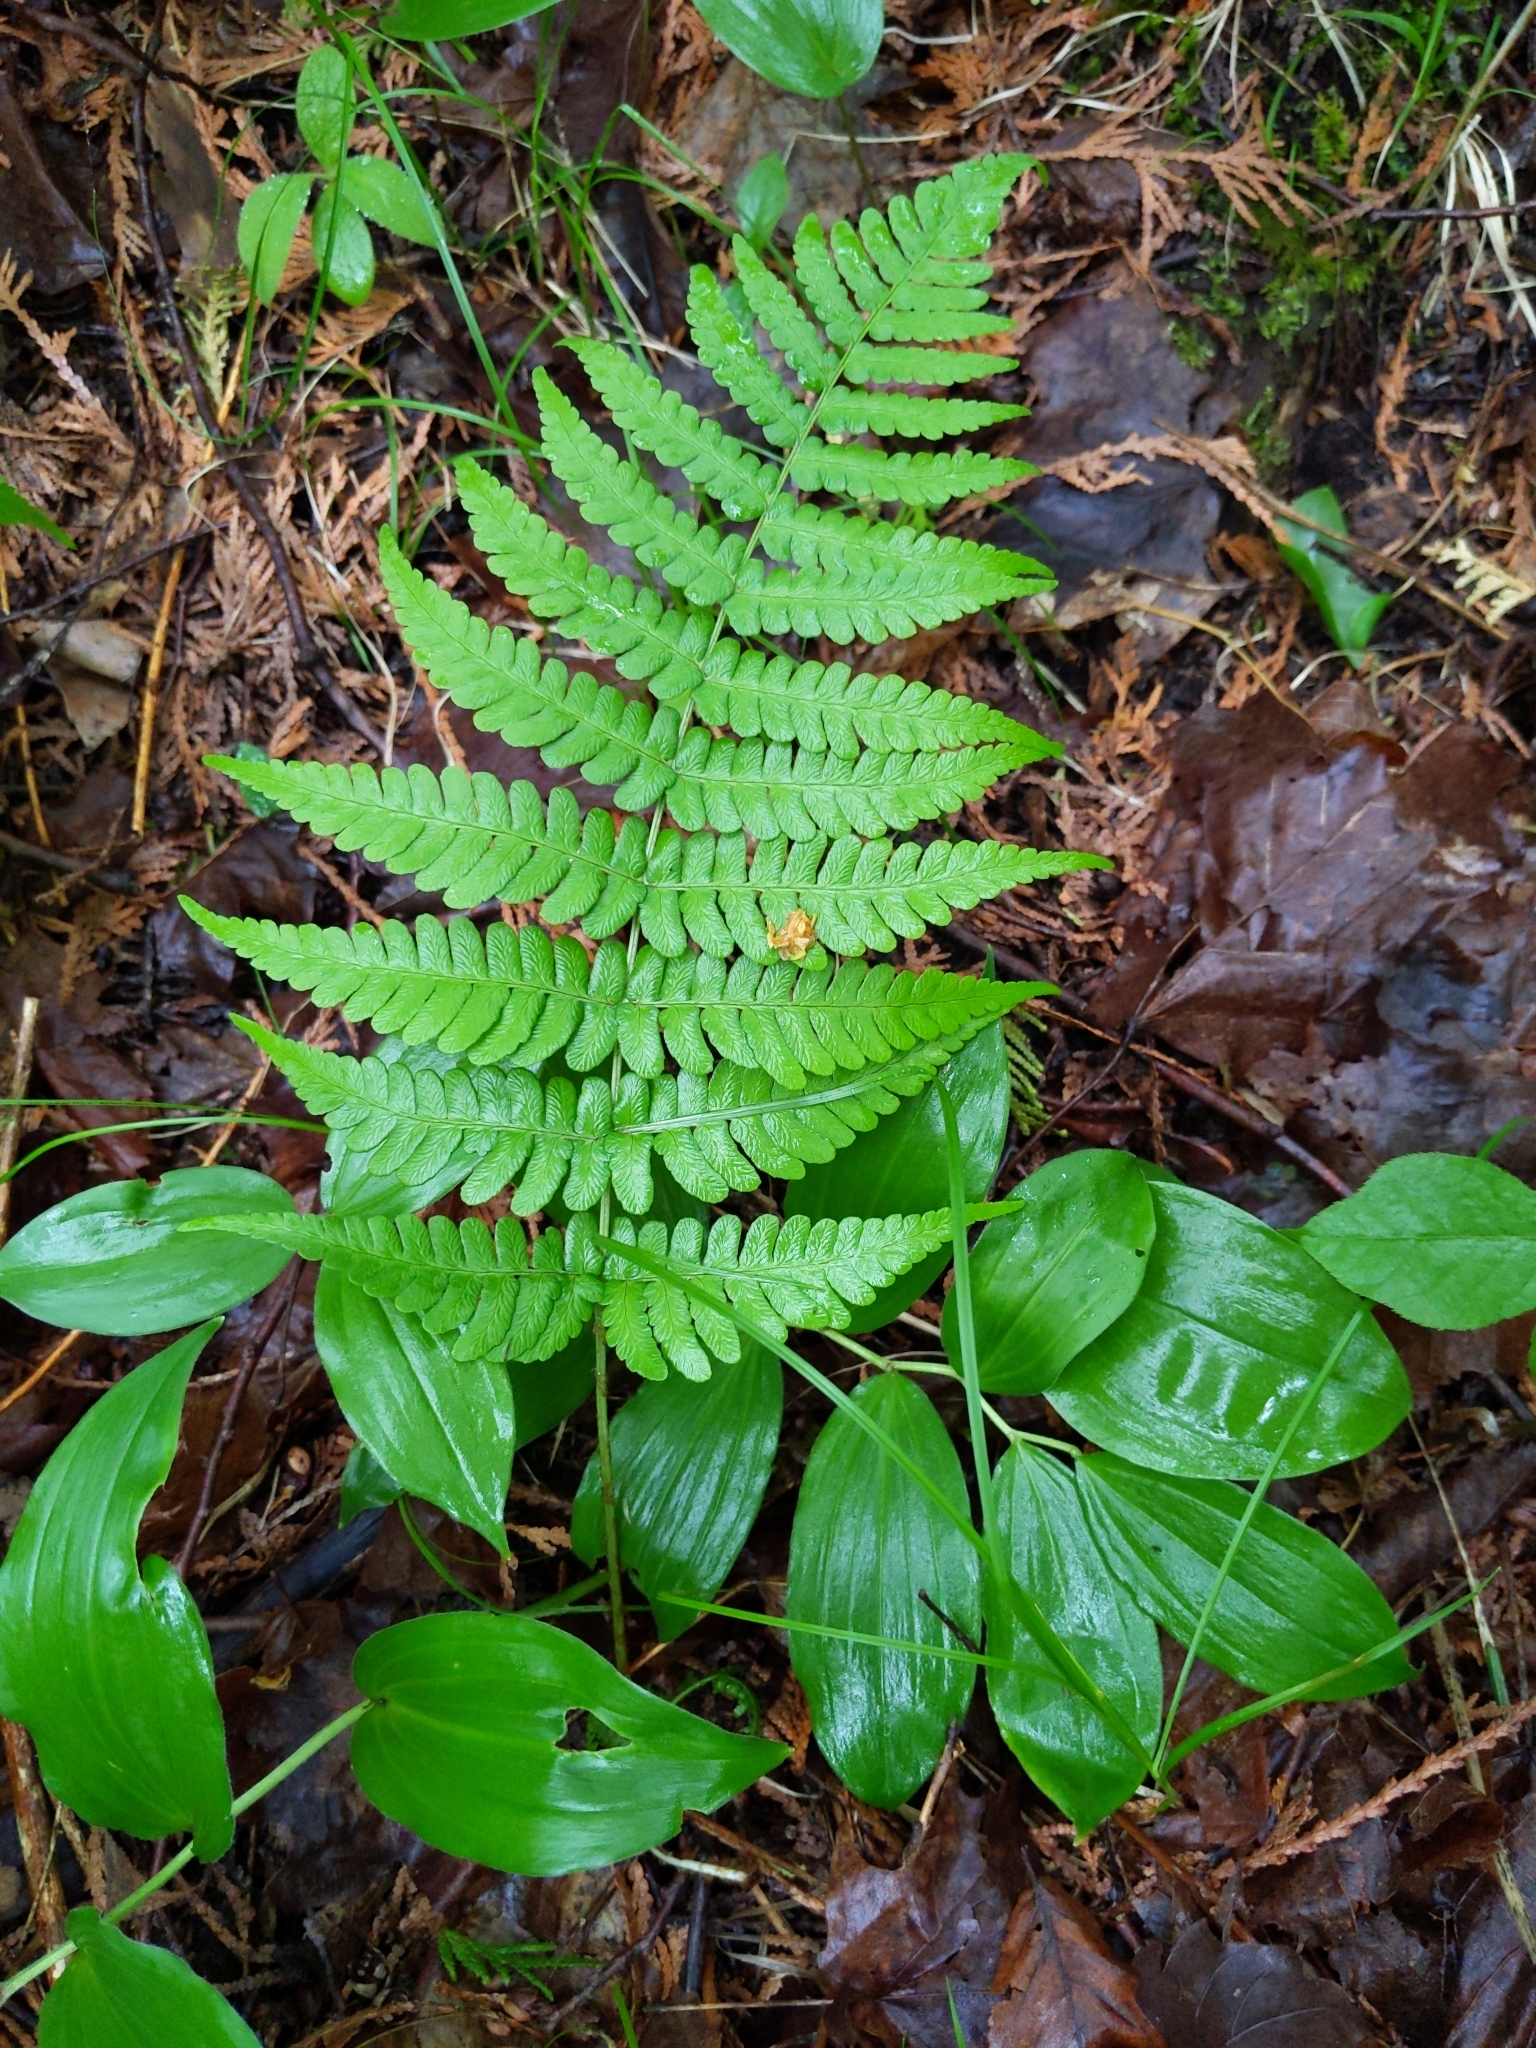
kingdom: Plantae
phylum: Tracheophyta
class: Polypodiopsida
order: Polypodiales
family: Dryopteridaceae
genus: Dryopteris
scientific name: Dryopteris marginalis
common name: Marginal wood fern
